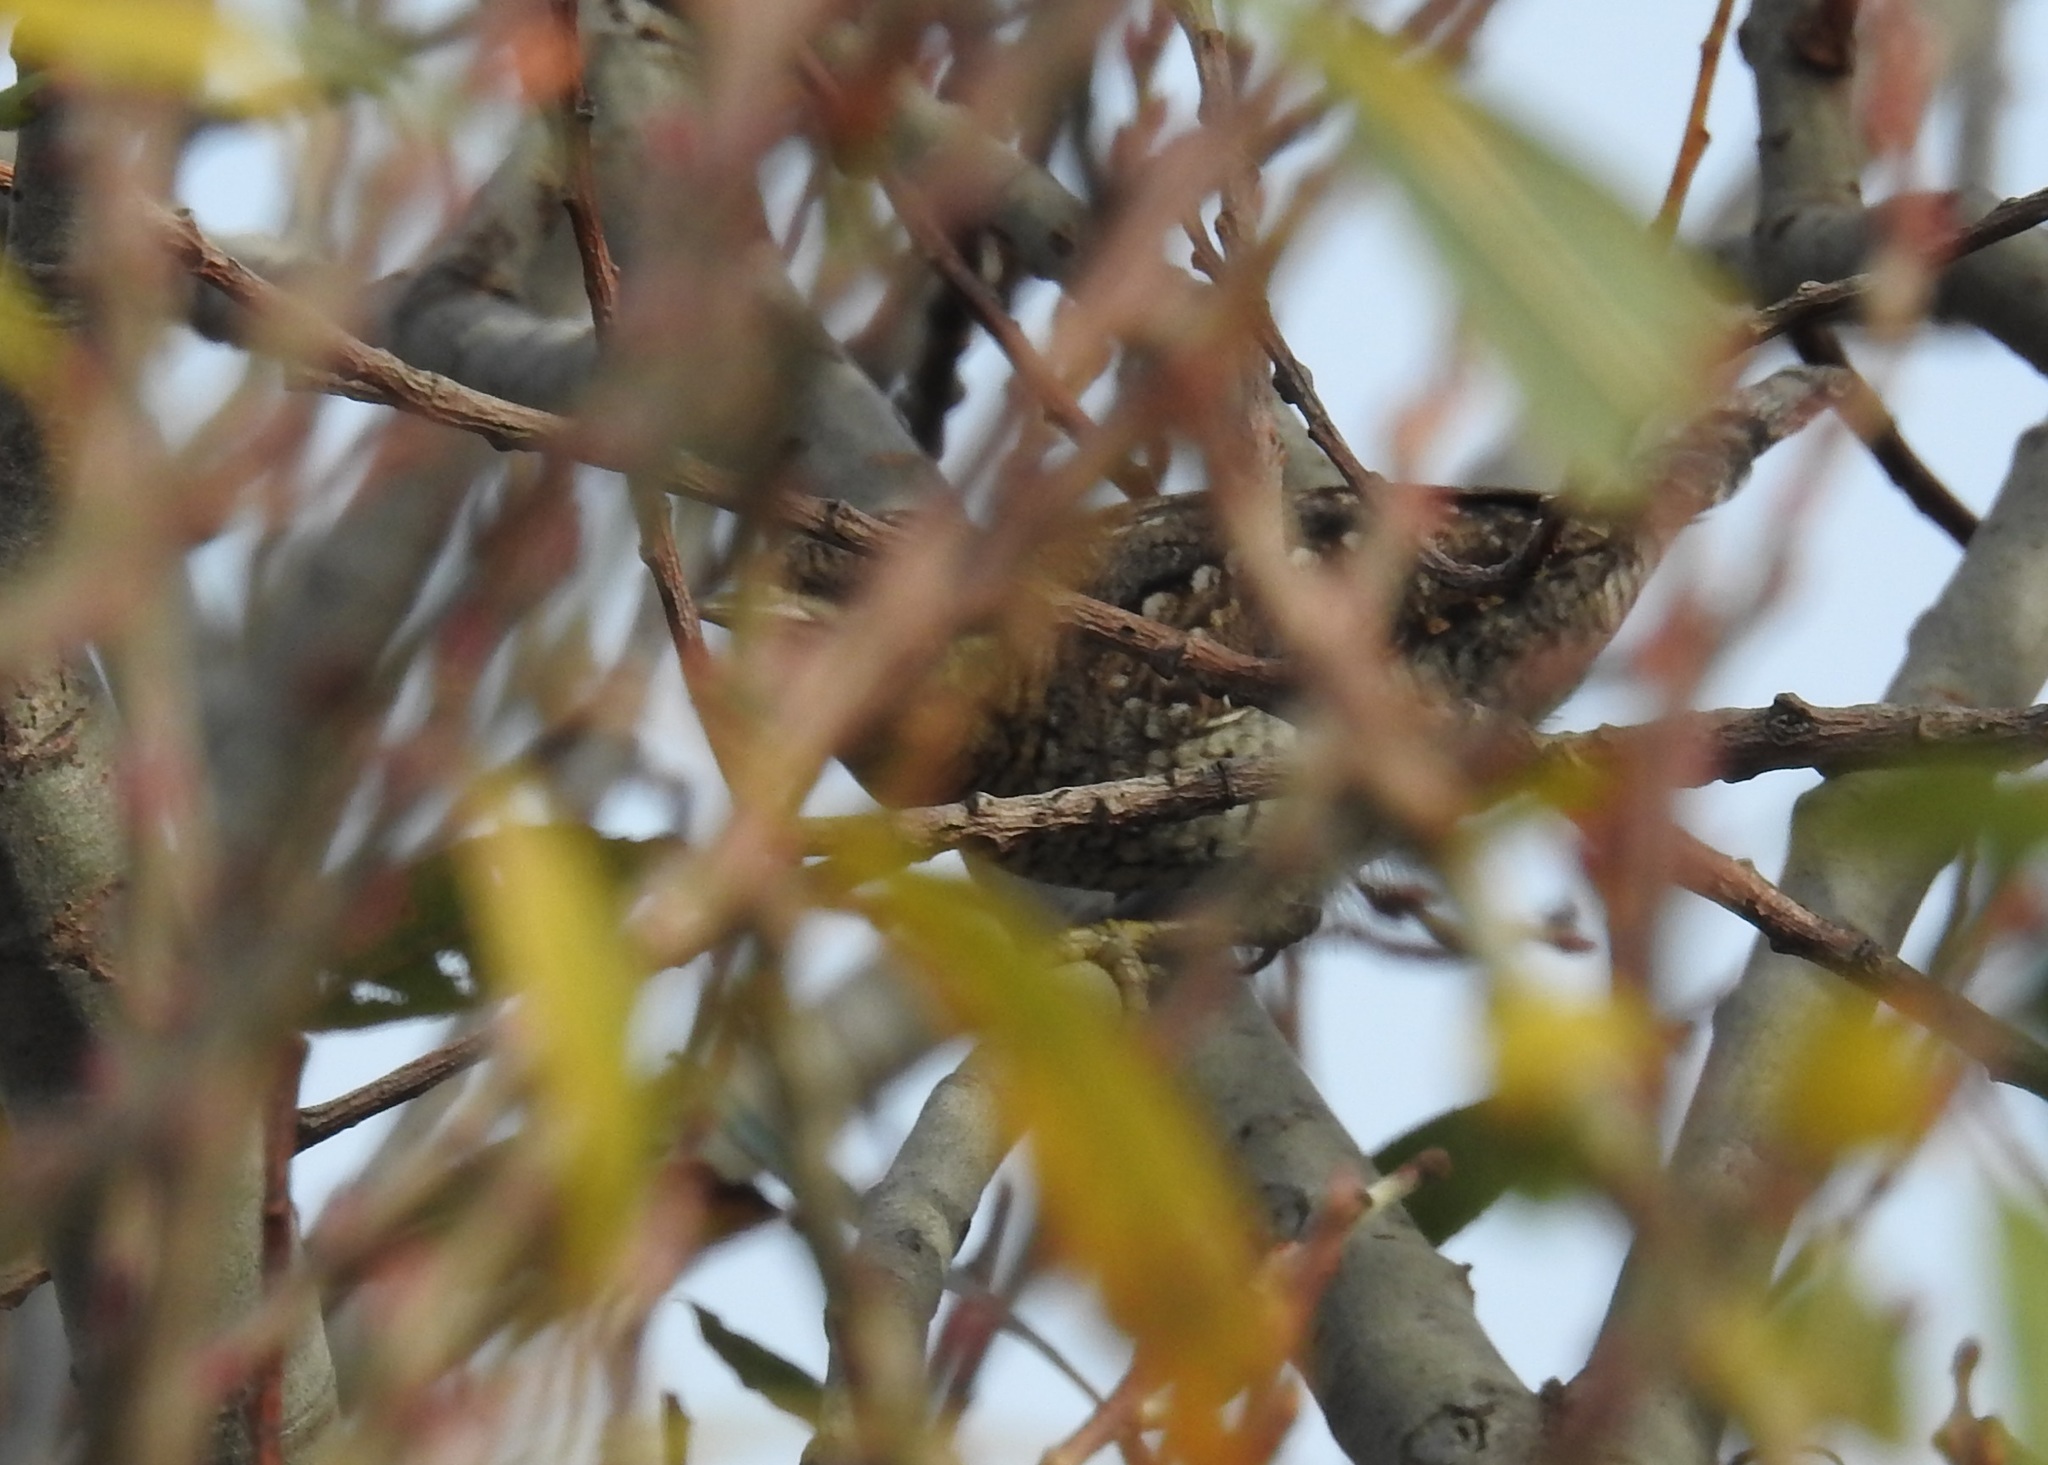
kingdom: Animalia
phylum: Chordata
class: Aves
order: Piciformes
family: Picidae
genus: Jynx
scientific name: Jynx torquilla
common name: Eurasian wryneck
